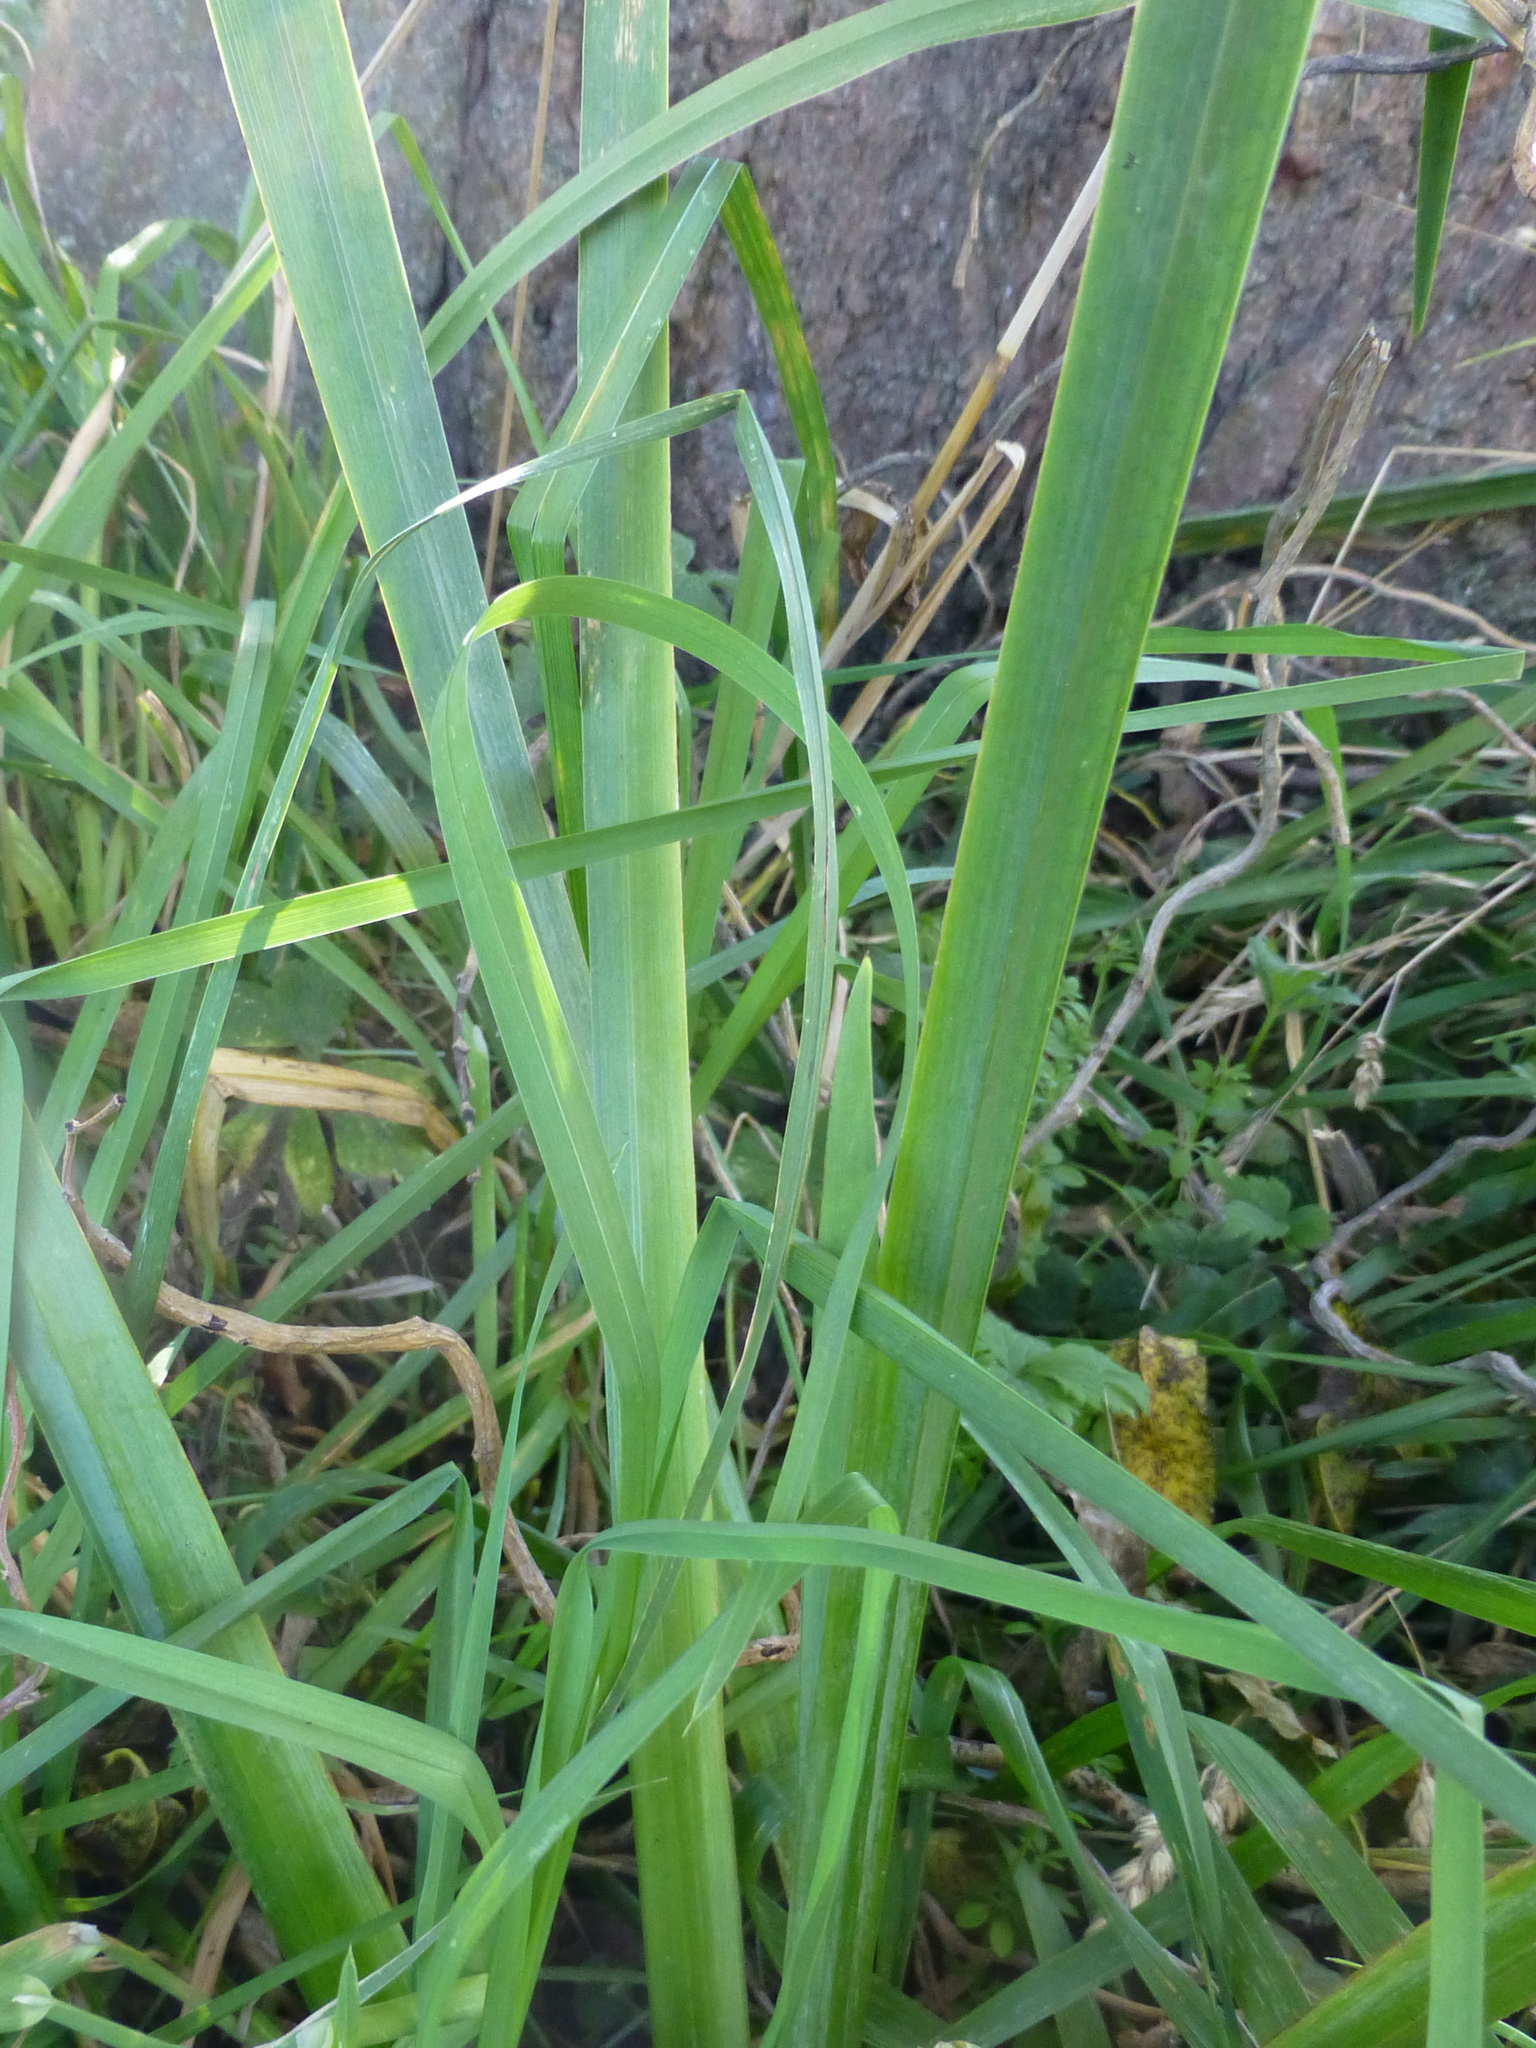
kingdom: Plantae
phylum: Tracheophyta
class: Liliopsida
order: Asparagales
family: Iridaceae
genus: Iris
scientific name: Iris pseudacorus
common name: Yellow flag
